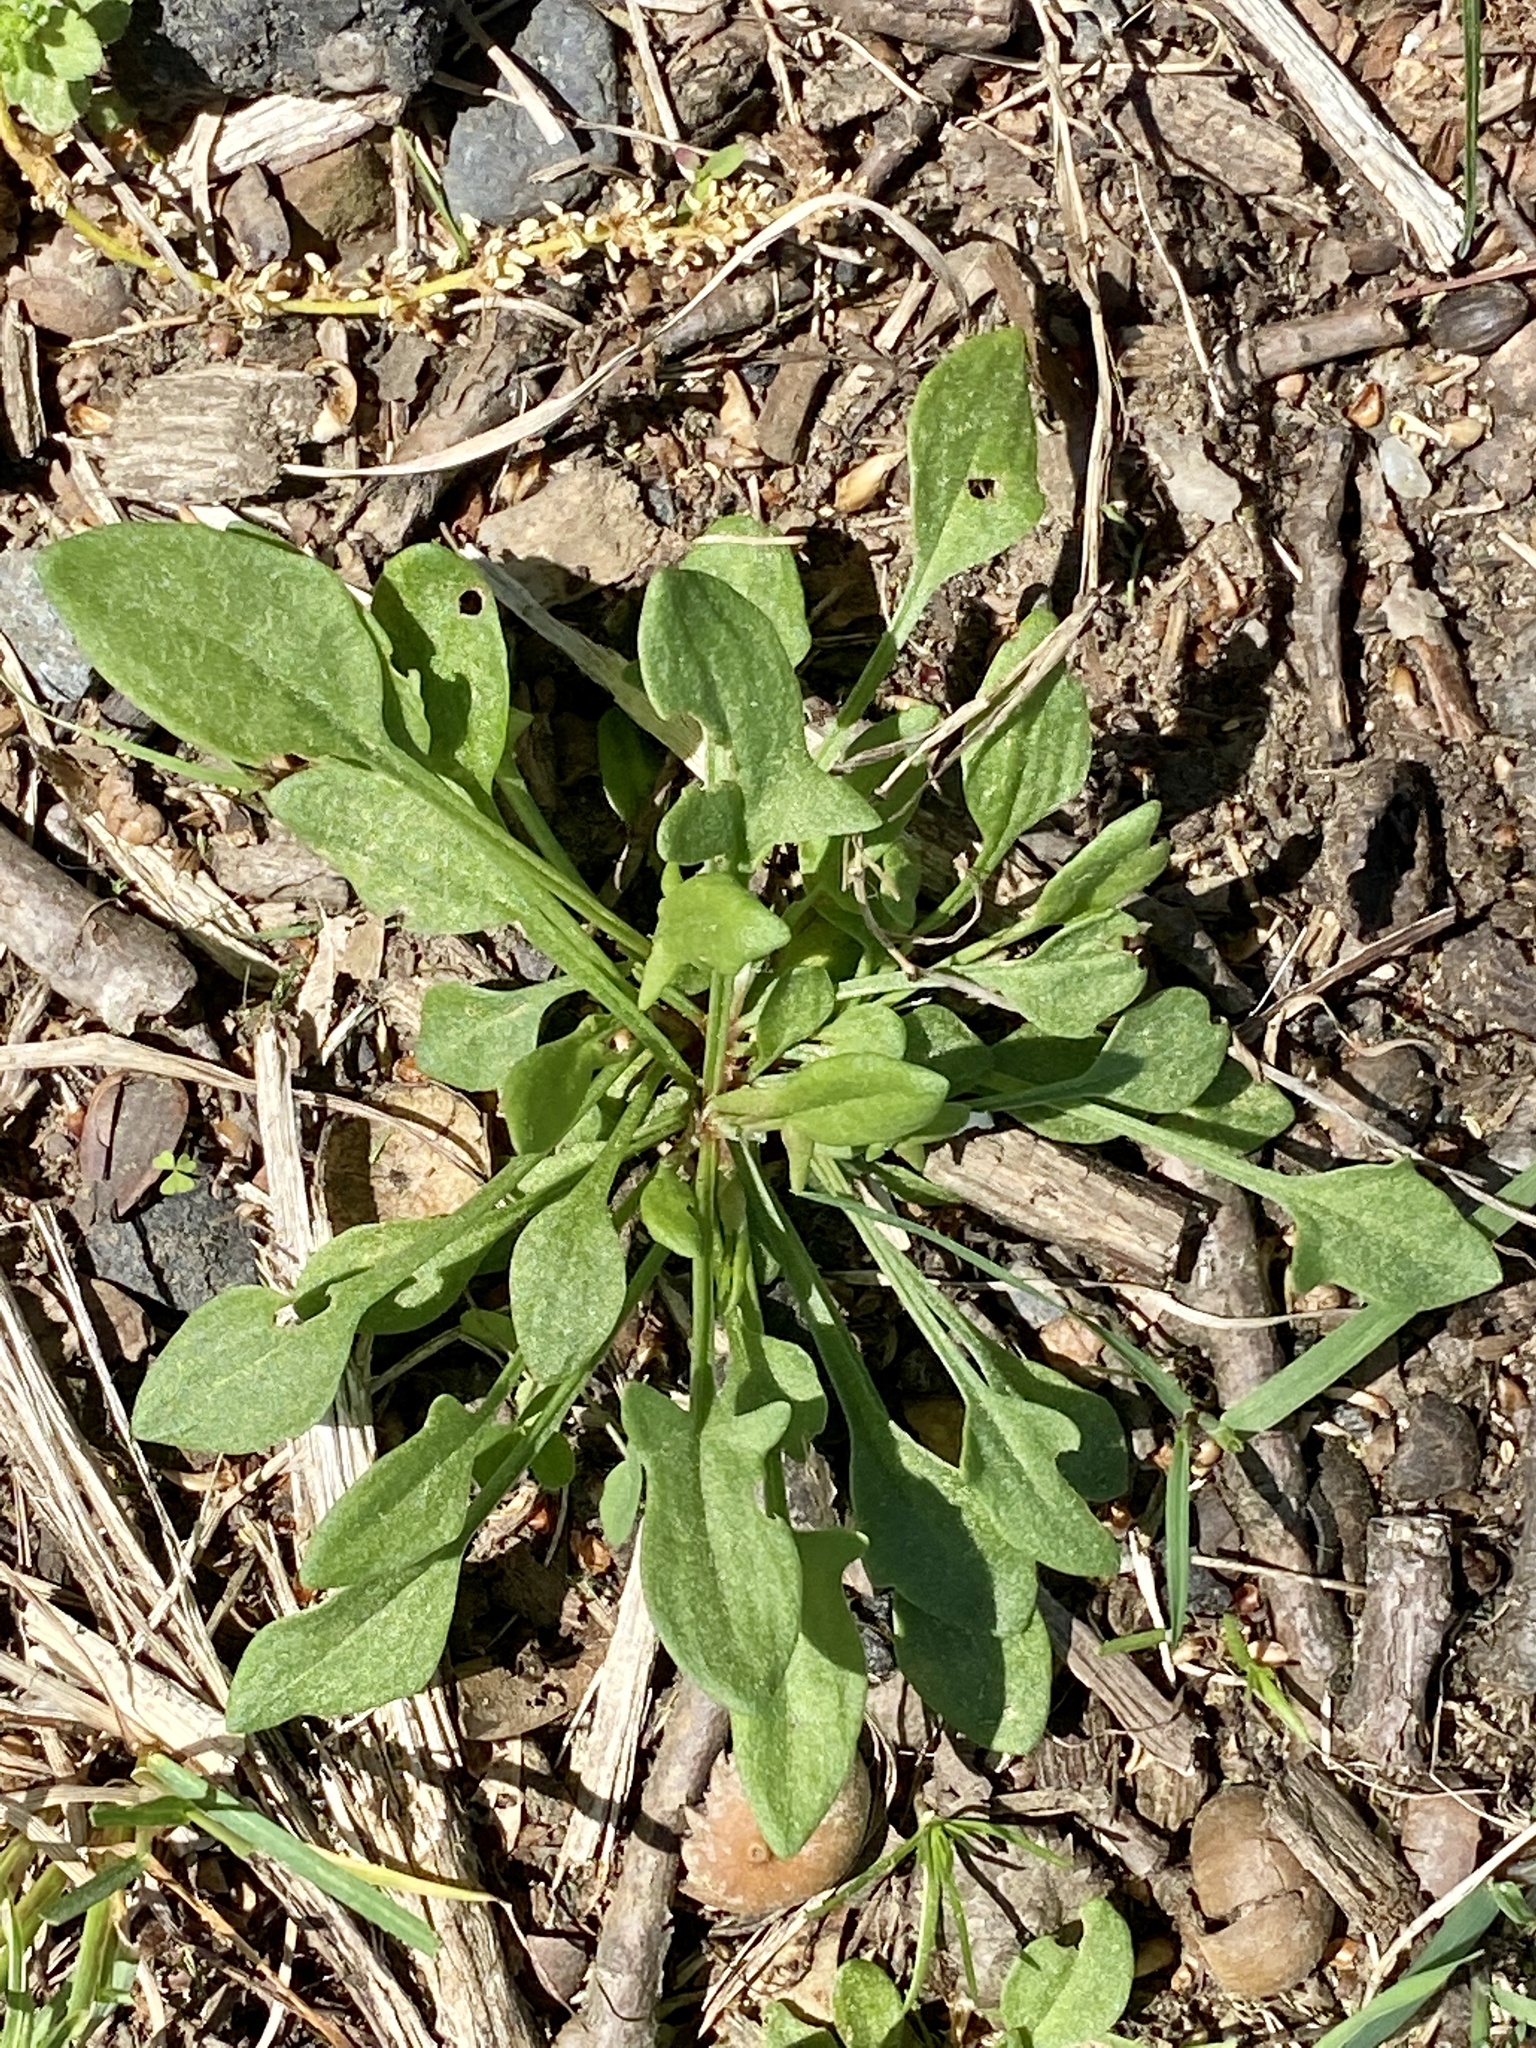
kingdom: Plantae
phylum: Tracheophyta
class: Magnoliopsida
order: Caryophyllales
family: Polygonaceae
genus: Rumex
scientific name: Rumex acetosella
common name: Common sheep sorrel
